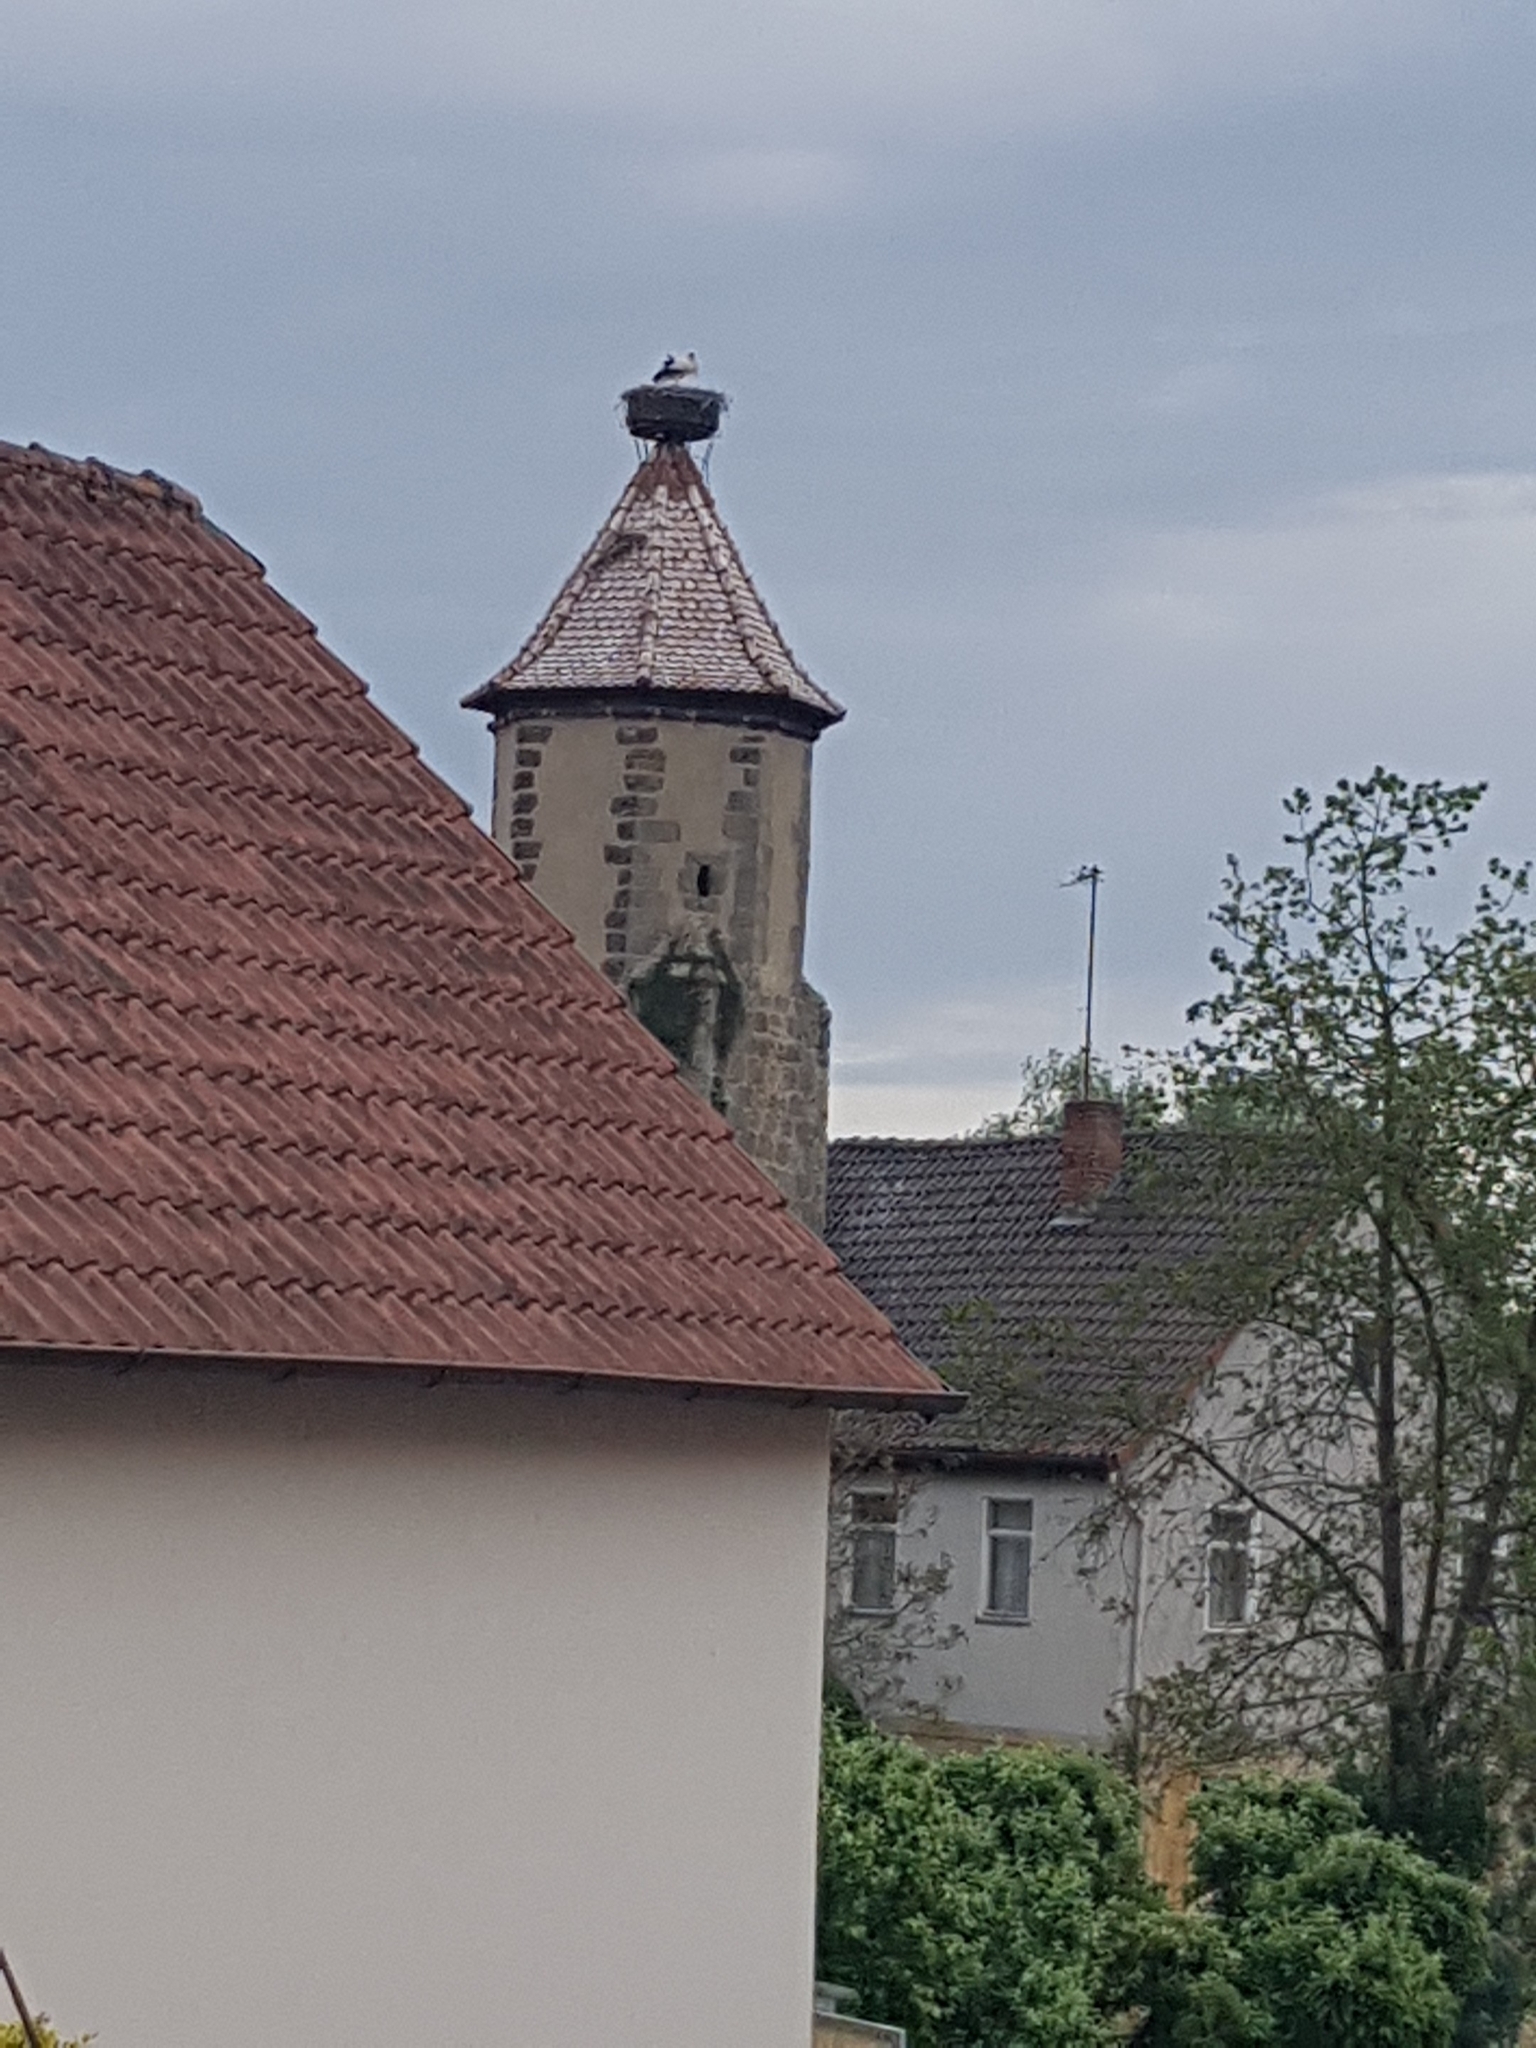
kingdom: Animalia
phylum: Chordata
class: Aves
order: Ciconiiformes
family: Ciconiidae
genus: Ciconia
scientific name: Ciconia ciconia
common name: White stork
